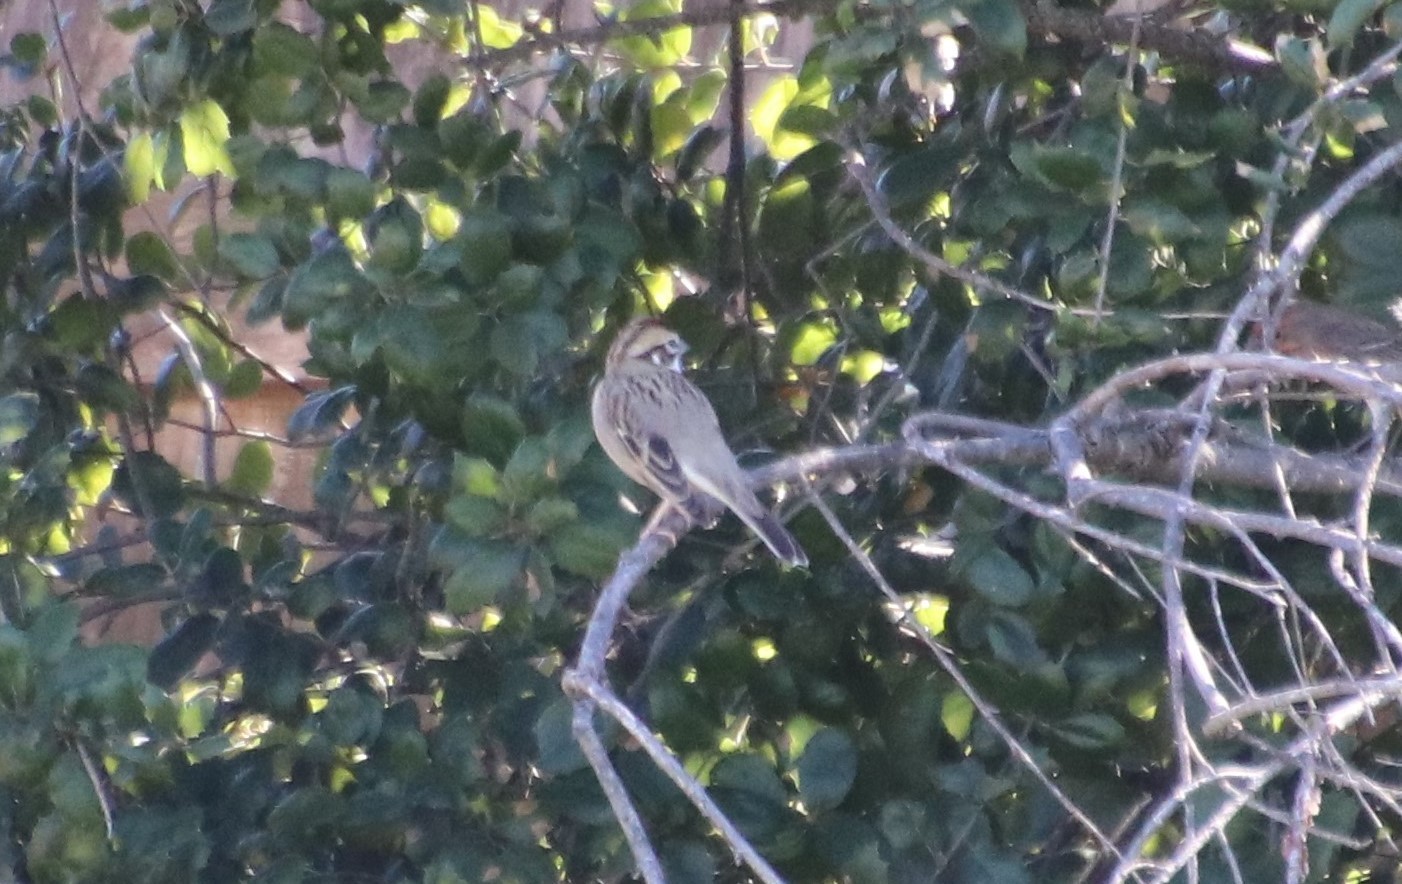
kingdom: Animalia
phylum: Chordata
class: Aves
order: Passeriformes
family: Passerellidae
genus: Chondestes
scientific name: Chondestes grammacus
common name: Lark sparrow
